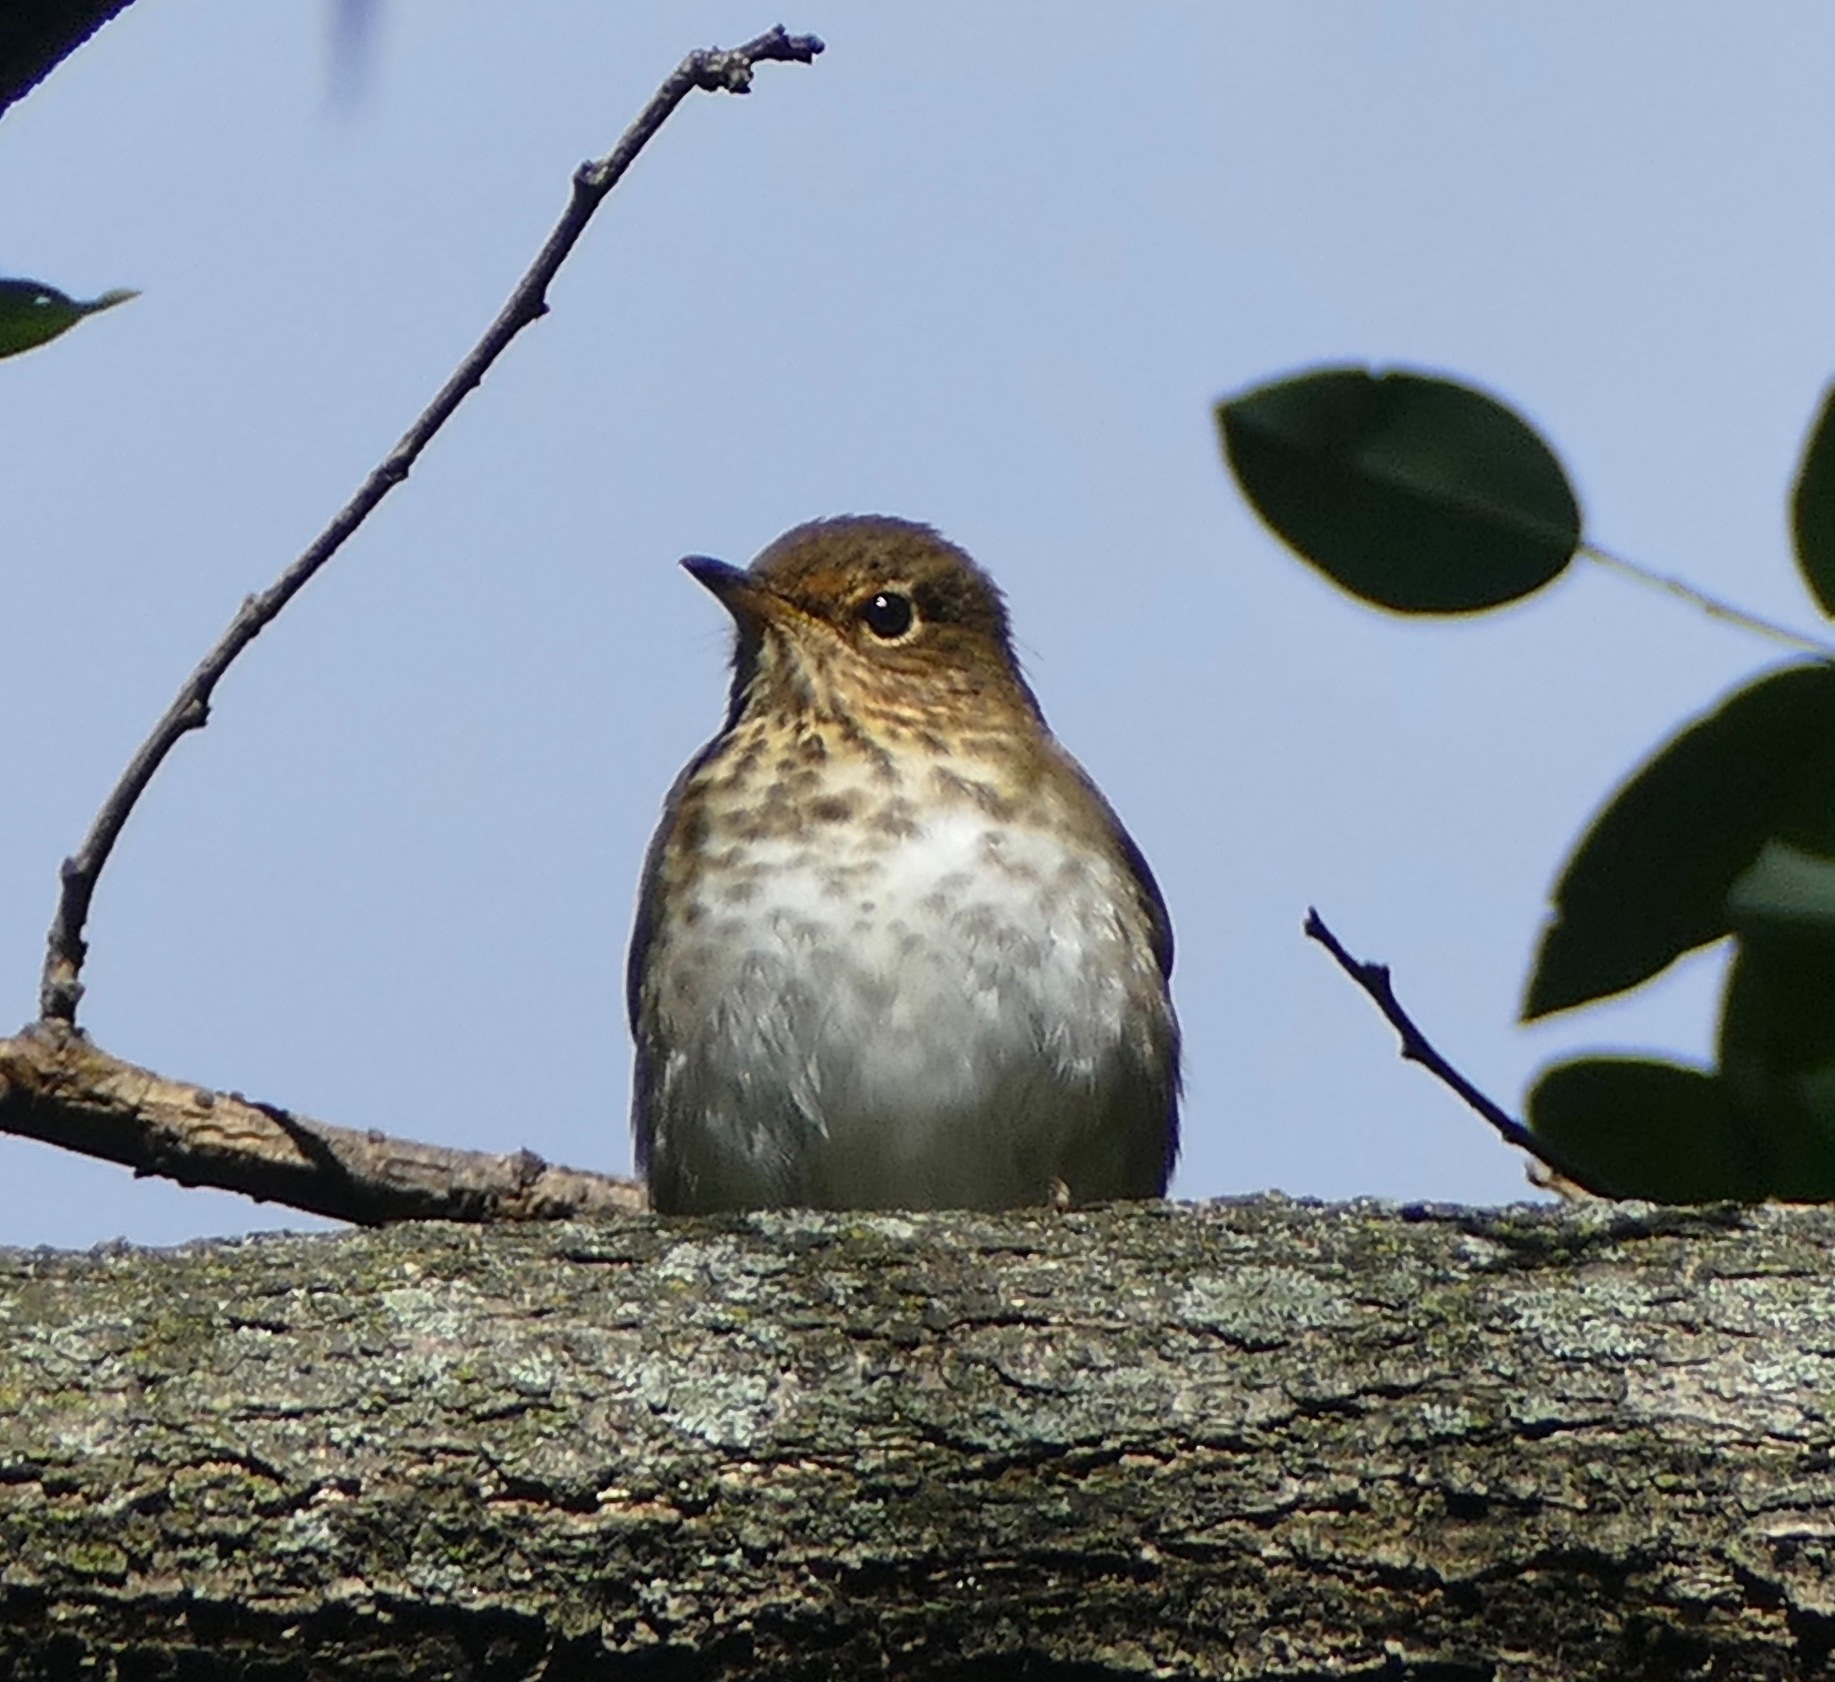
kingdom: Animalia
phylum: Chordata
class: Aves
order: Passeriformes
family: Turdidae
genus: Catharus
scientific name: Catharus ustulatus
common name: Swainson's thrush
